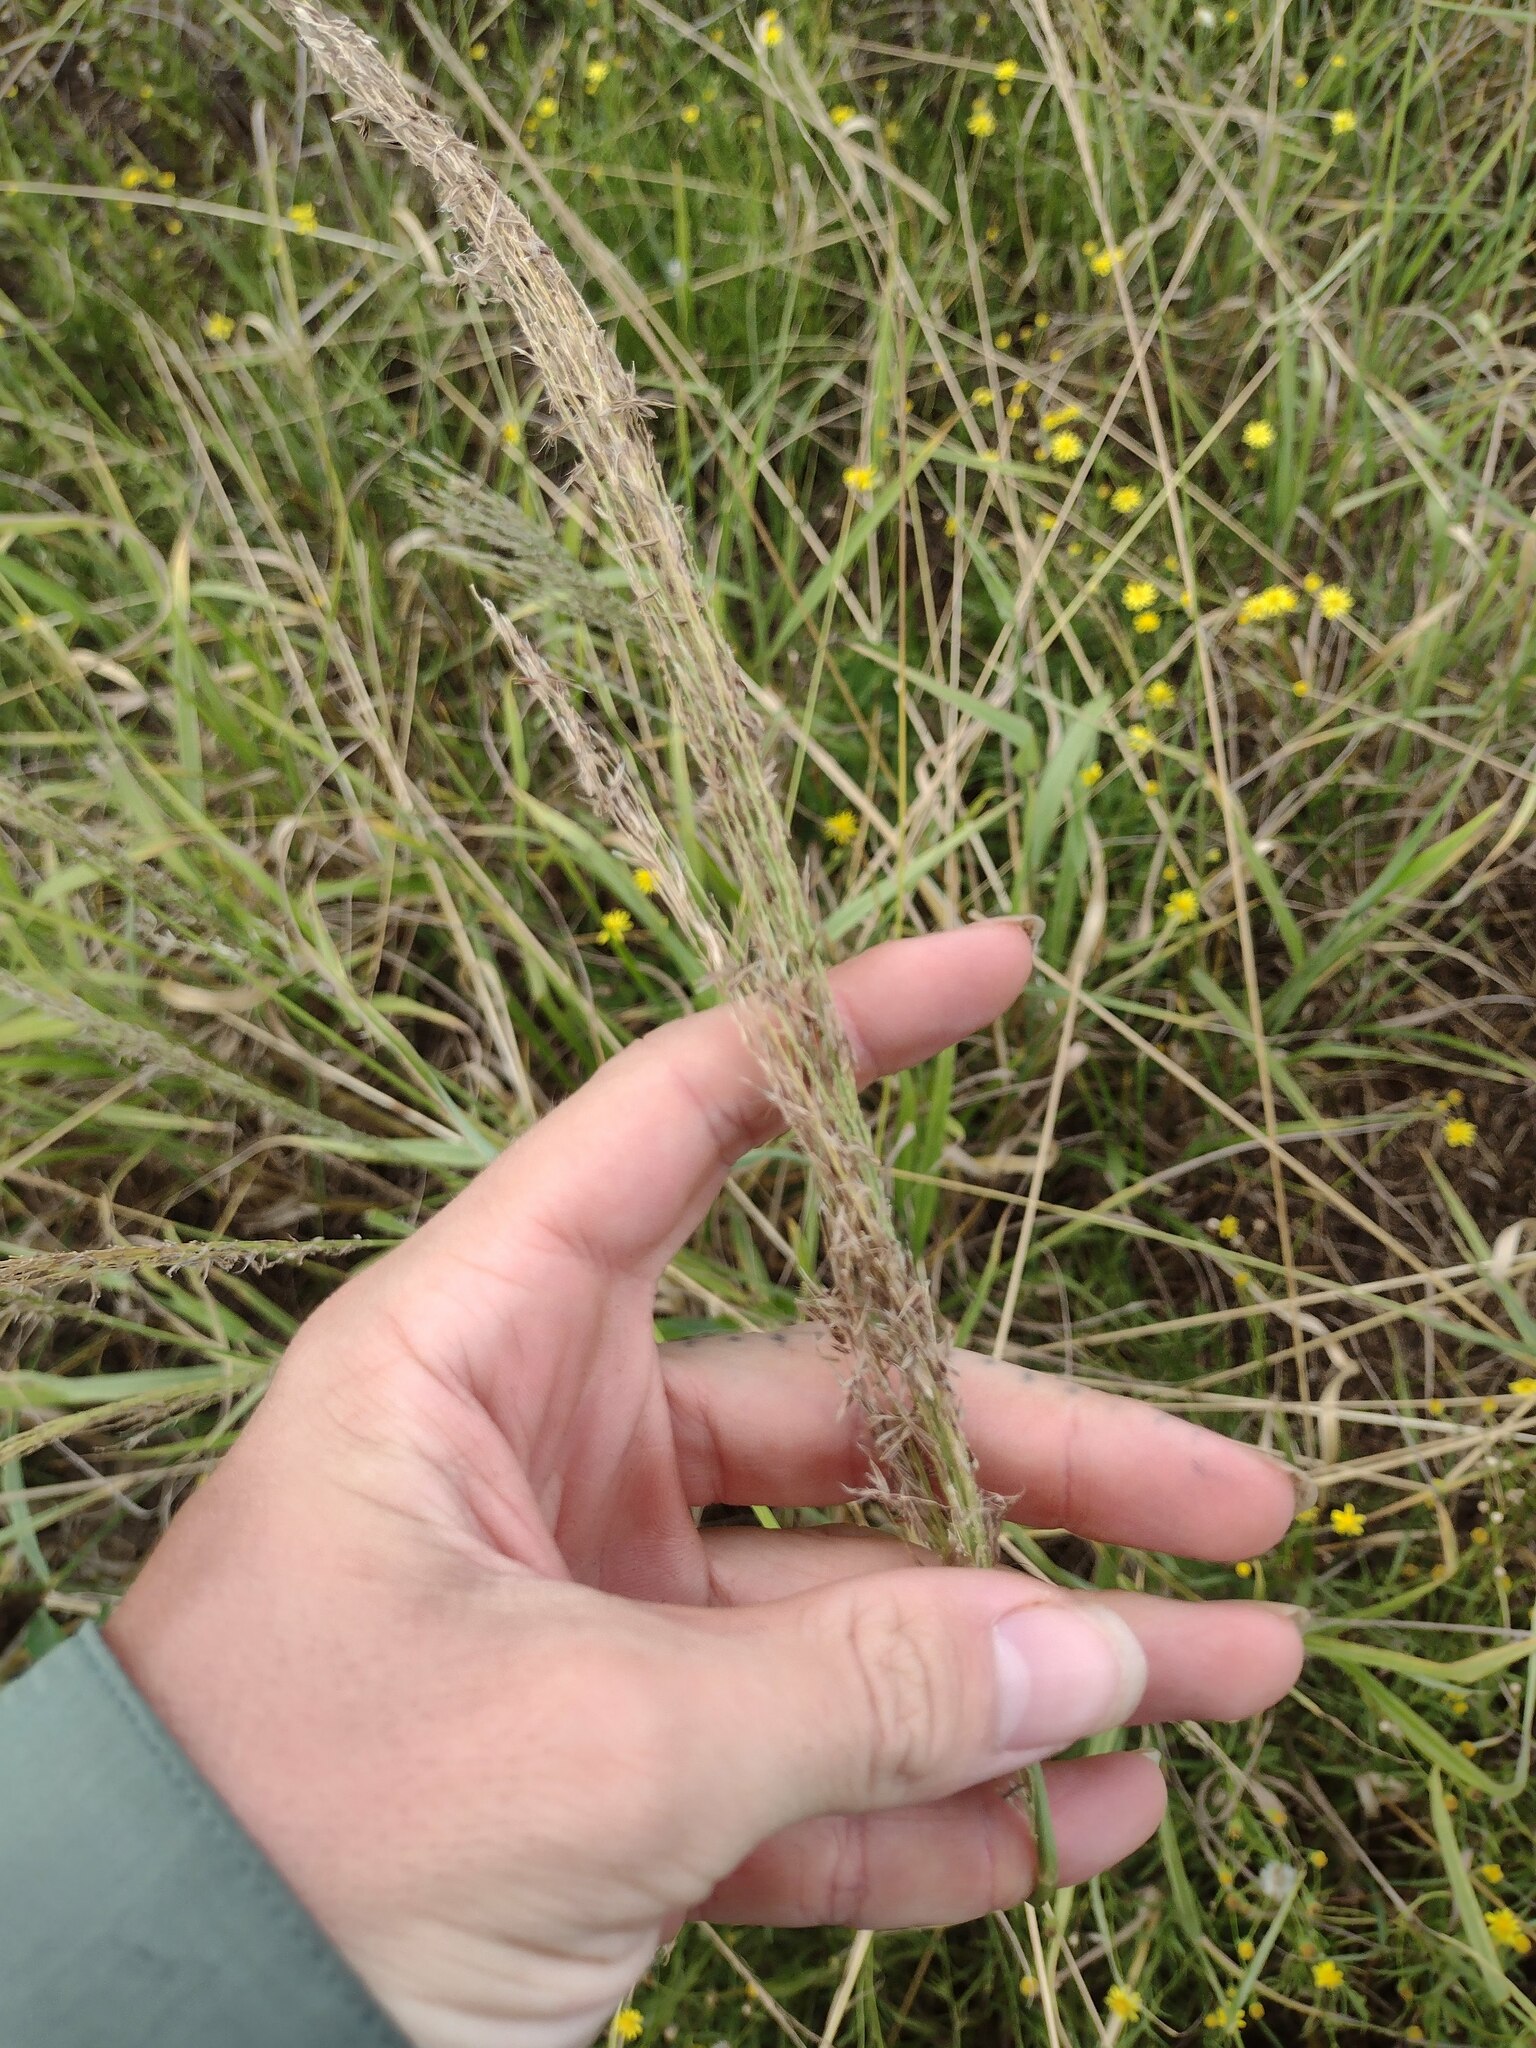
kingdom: Plantae
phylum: Tracheophyta
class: Liliopsida
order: Poales
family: Poaceae
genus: Digitaria
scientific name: Digitaria insularis
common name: Sourgrass
